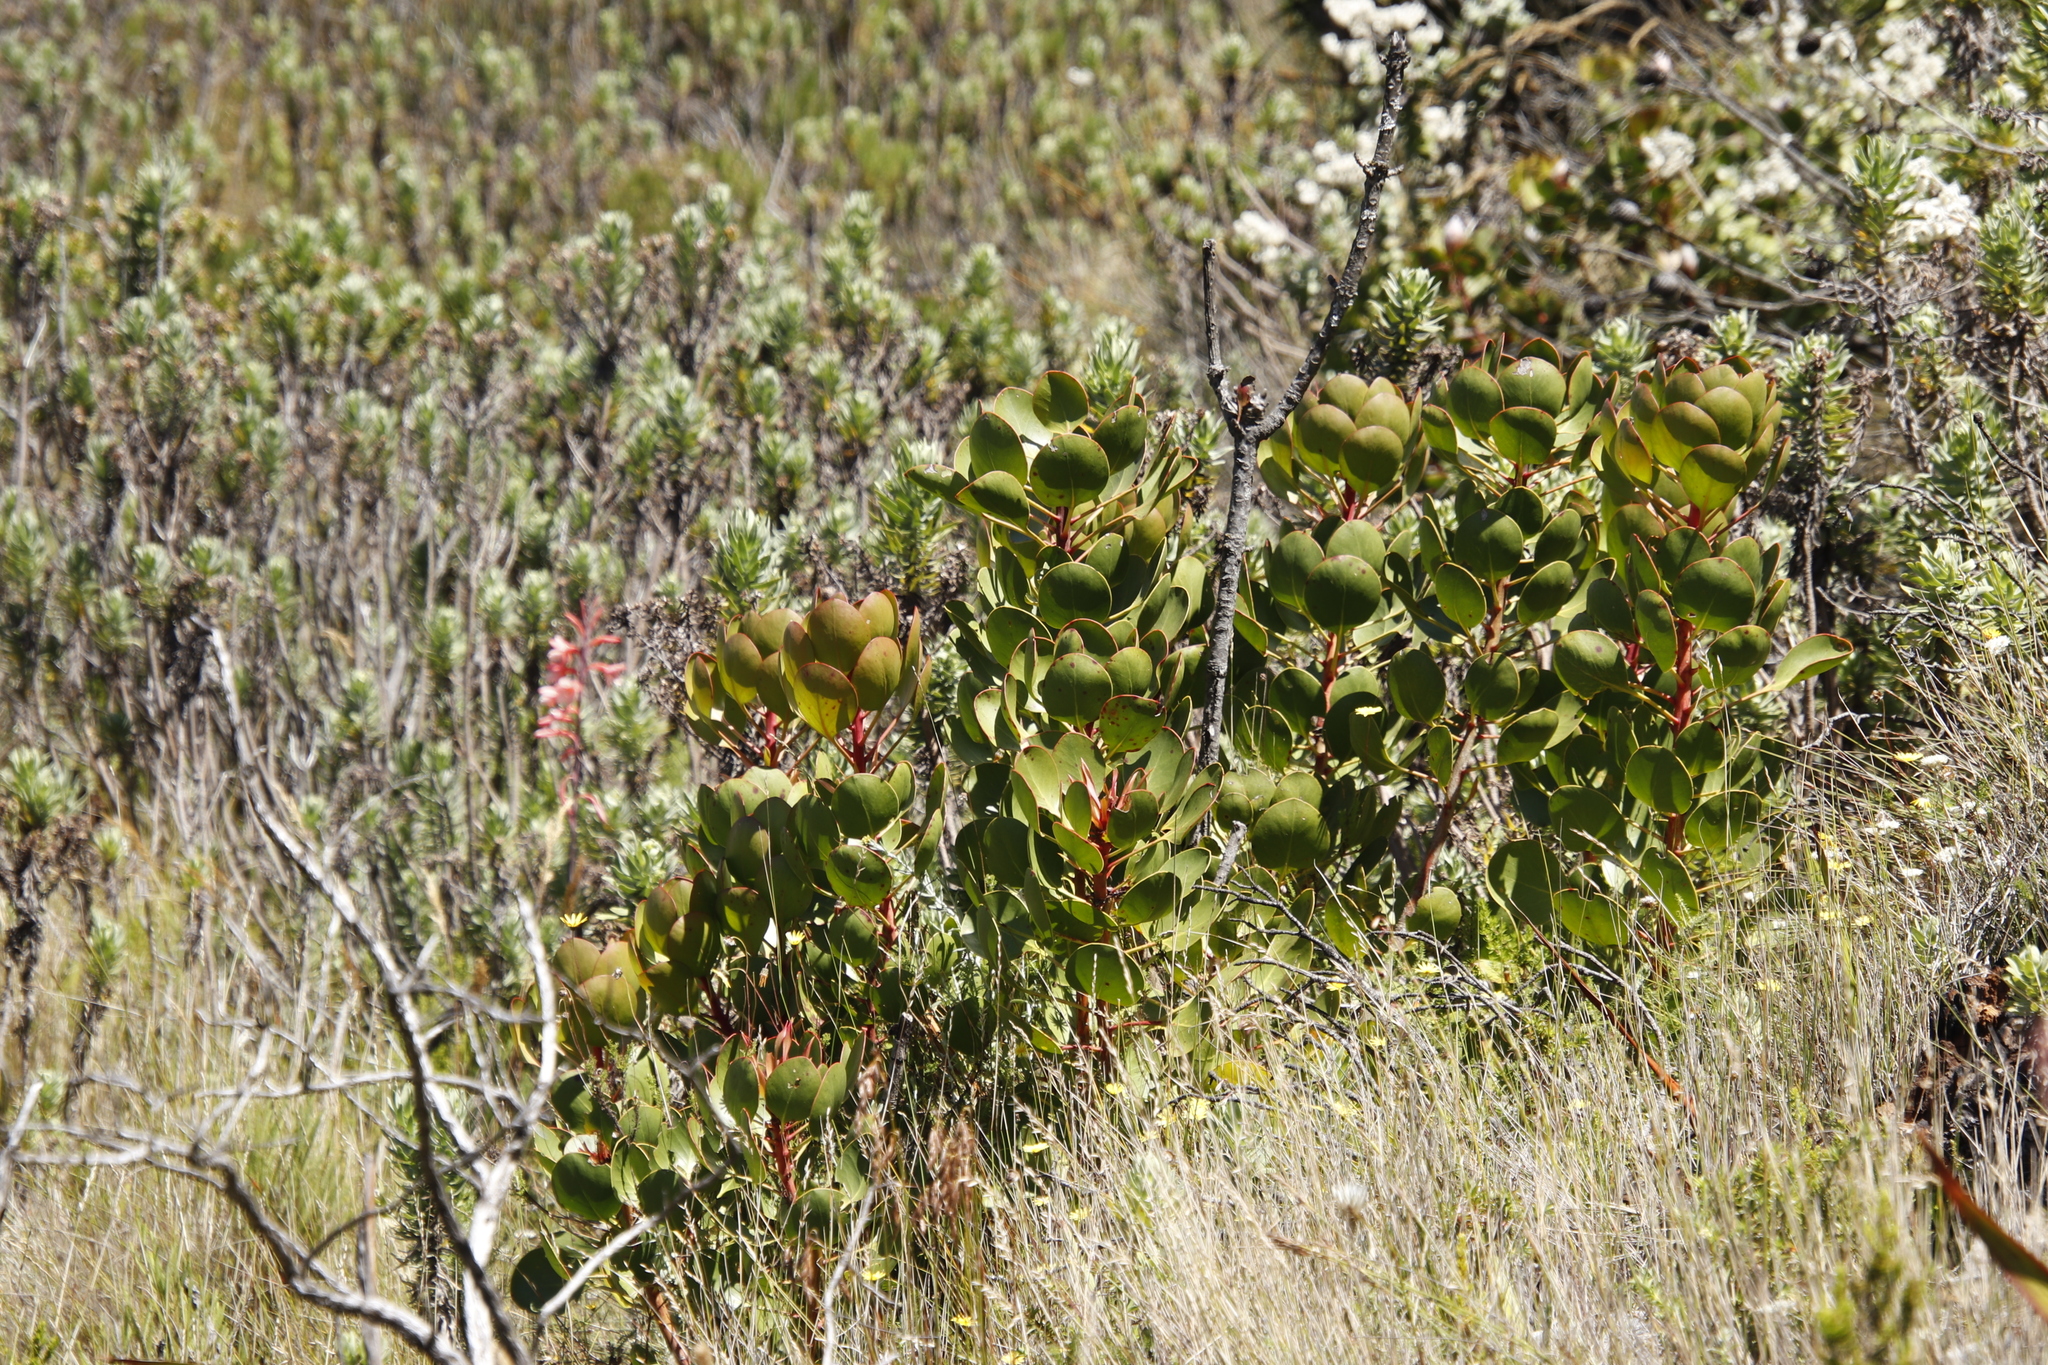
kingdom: Plantae
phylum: Tracheophyta
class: Magnoliopsida
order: Proteales
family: Proteaceae
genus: Protea
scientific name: Protea cynaroides
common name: King protea
